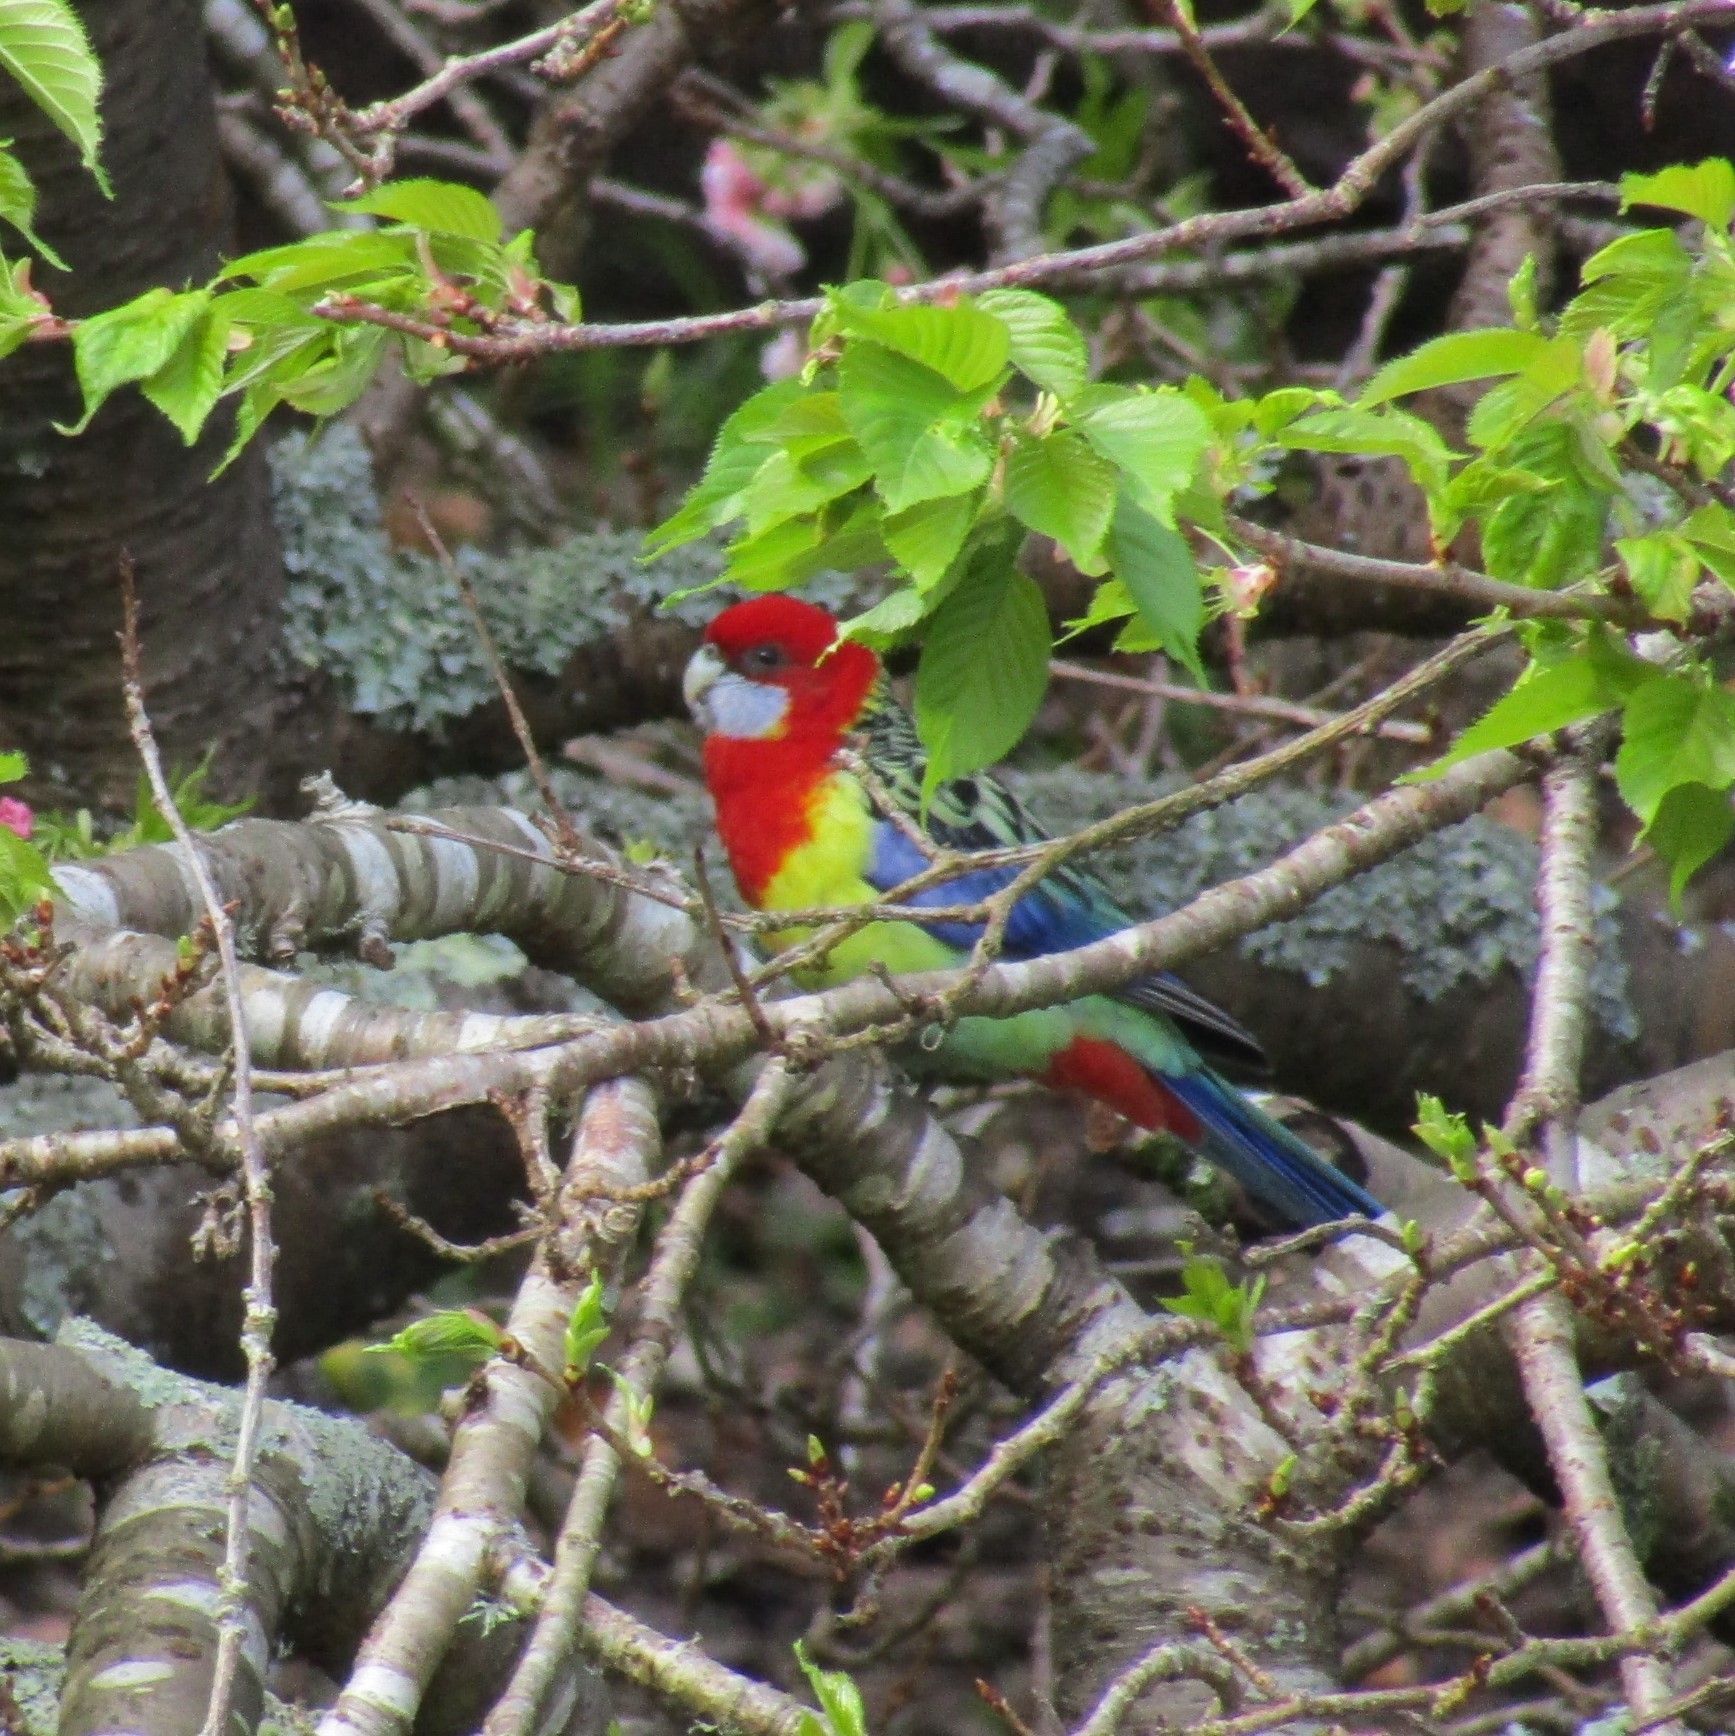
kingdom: Animalia
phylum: Chordata
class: Aves
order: Psittaciformes
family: Psittacidae
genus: Platycercus
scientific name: Platycercus eximius
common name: Eastern rosella
